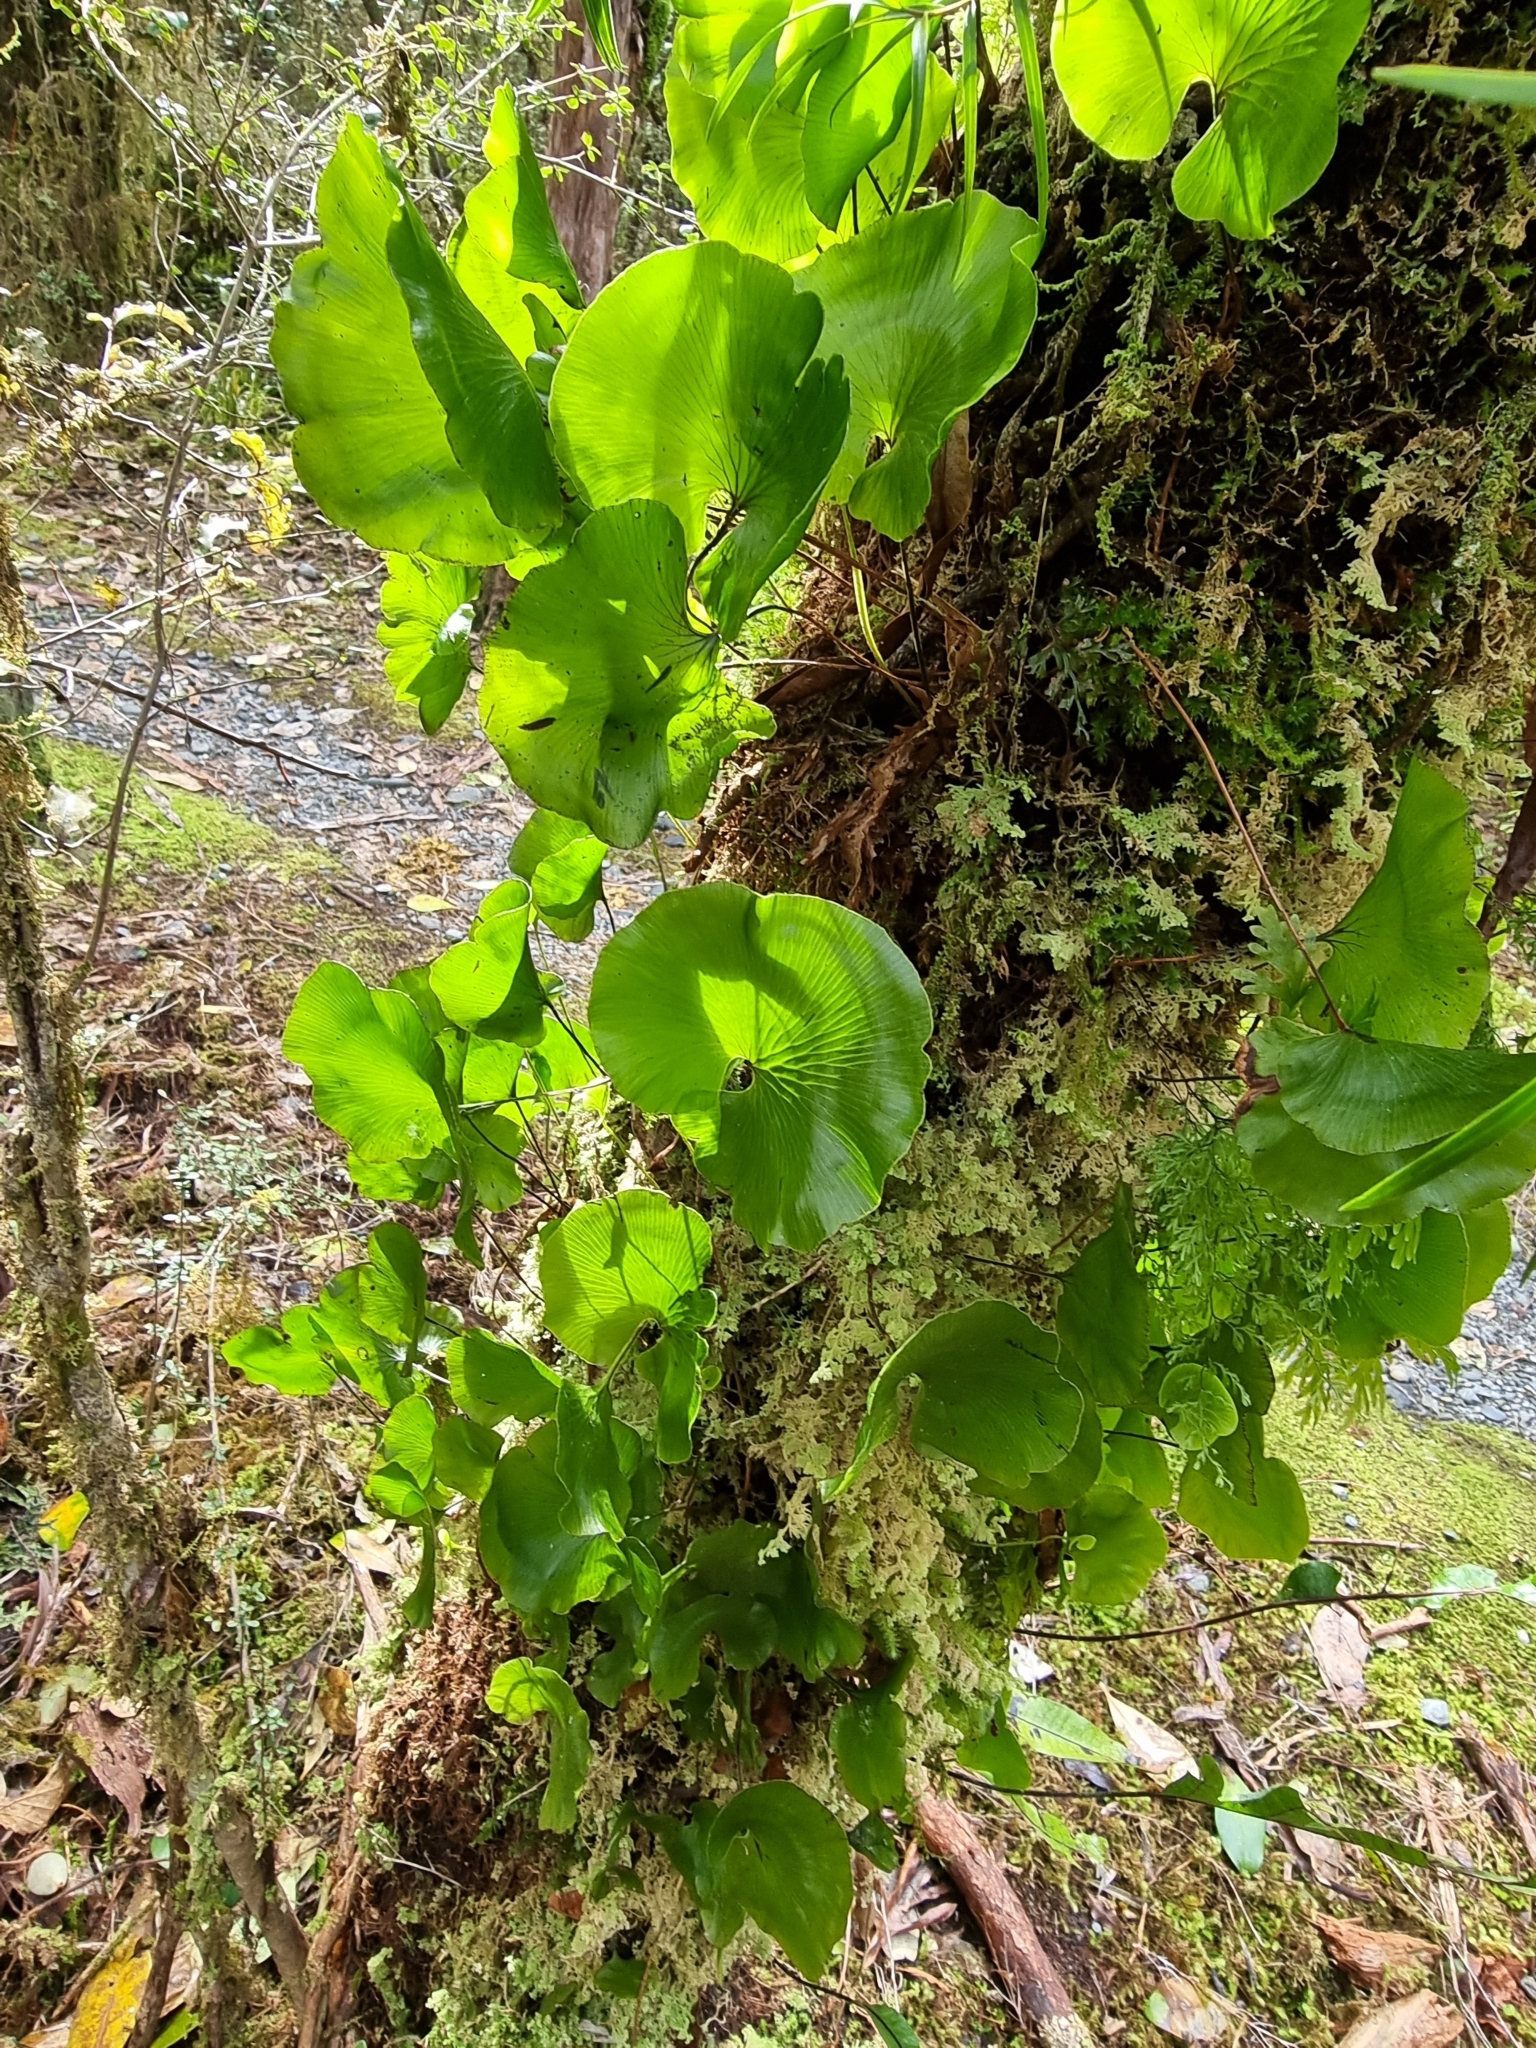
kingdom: Plantae
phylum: Tracheophyta
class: Polypodiopsida
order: Hymenophyllales
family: Hymenophyllaceae
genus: Hymenophyllum
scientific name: Hymenophyllum nephrophyllum
